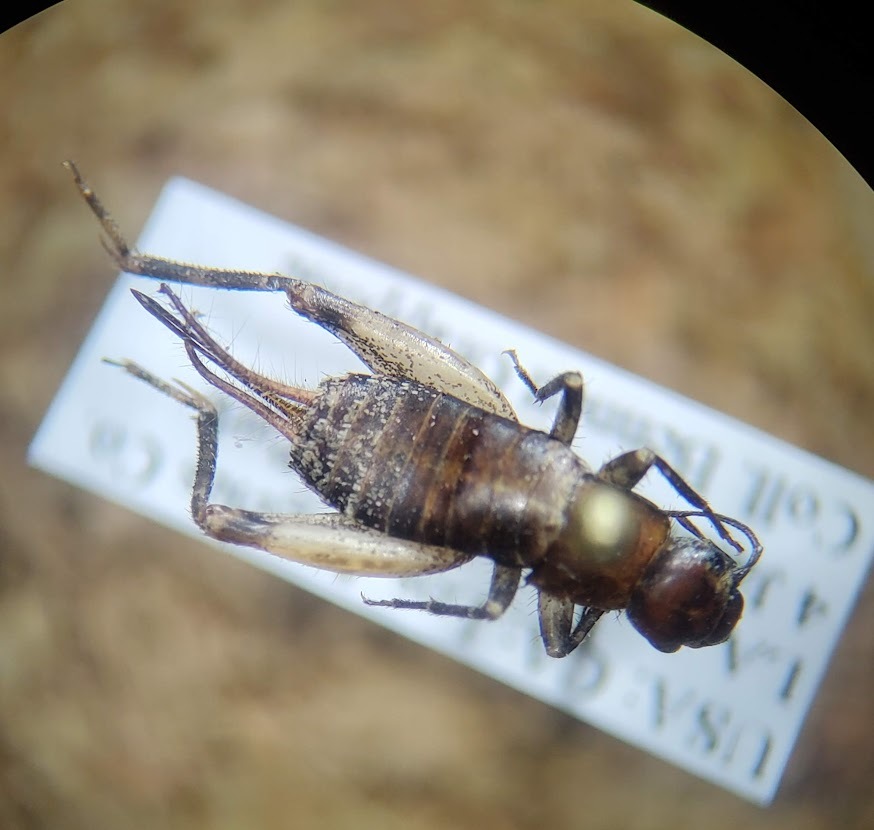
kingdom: Animalia
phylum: Arthropoda
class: Insecta
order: Orthoptera
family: Mogoplistidae
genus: Hoplosphyrum
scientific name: Hoplosphyrum boreale
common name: Long-winged scaly cricket
